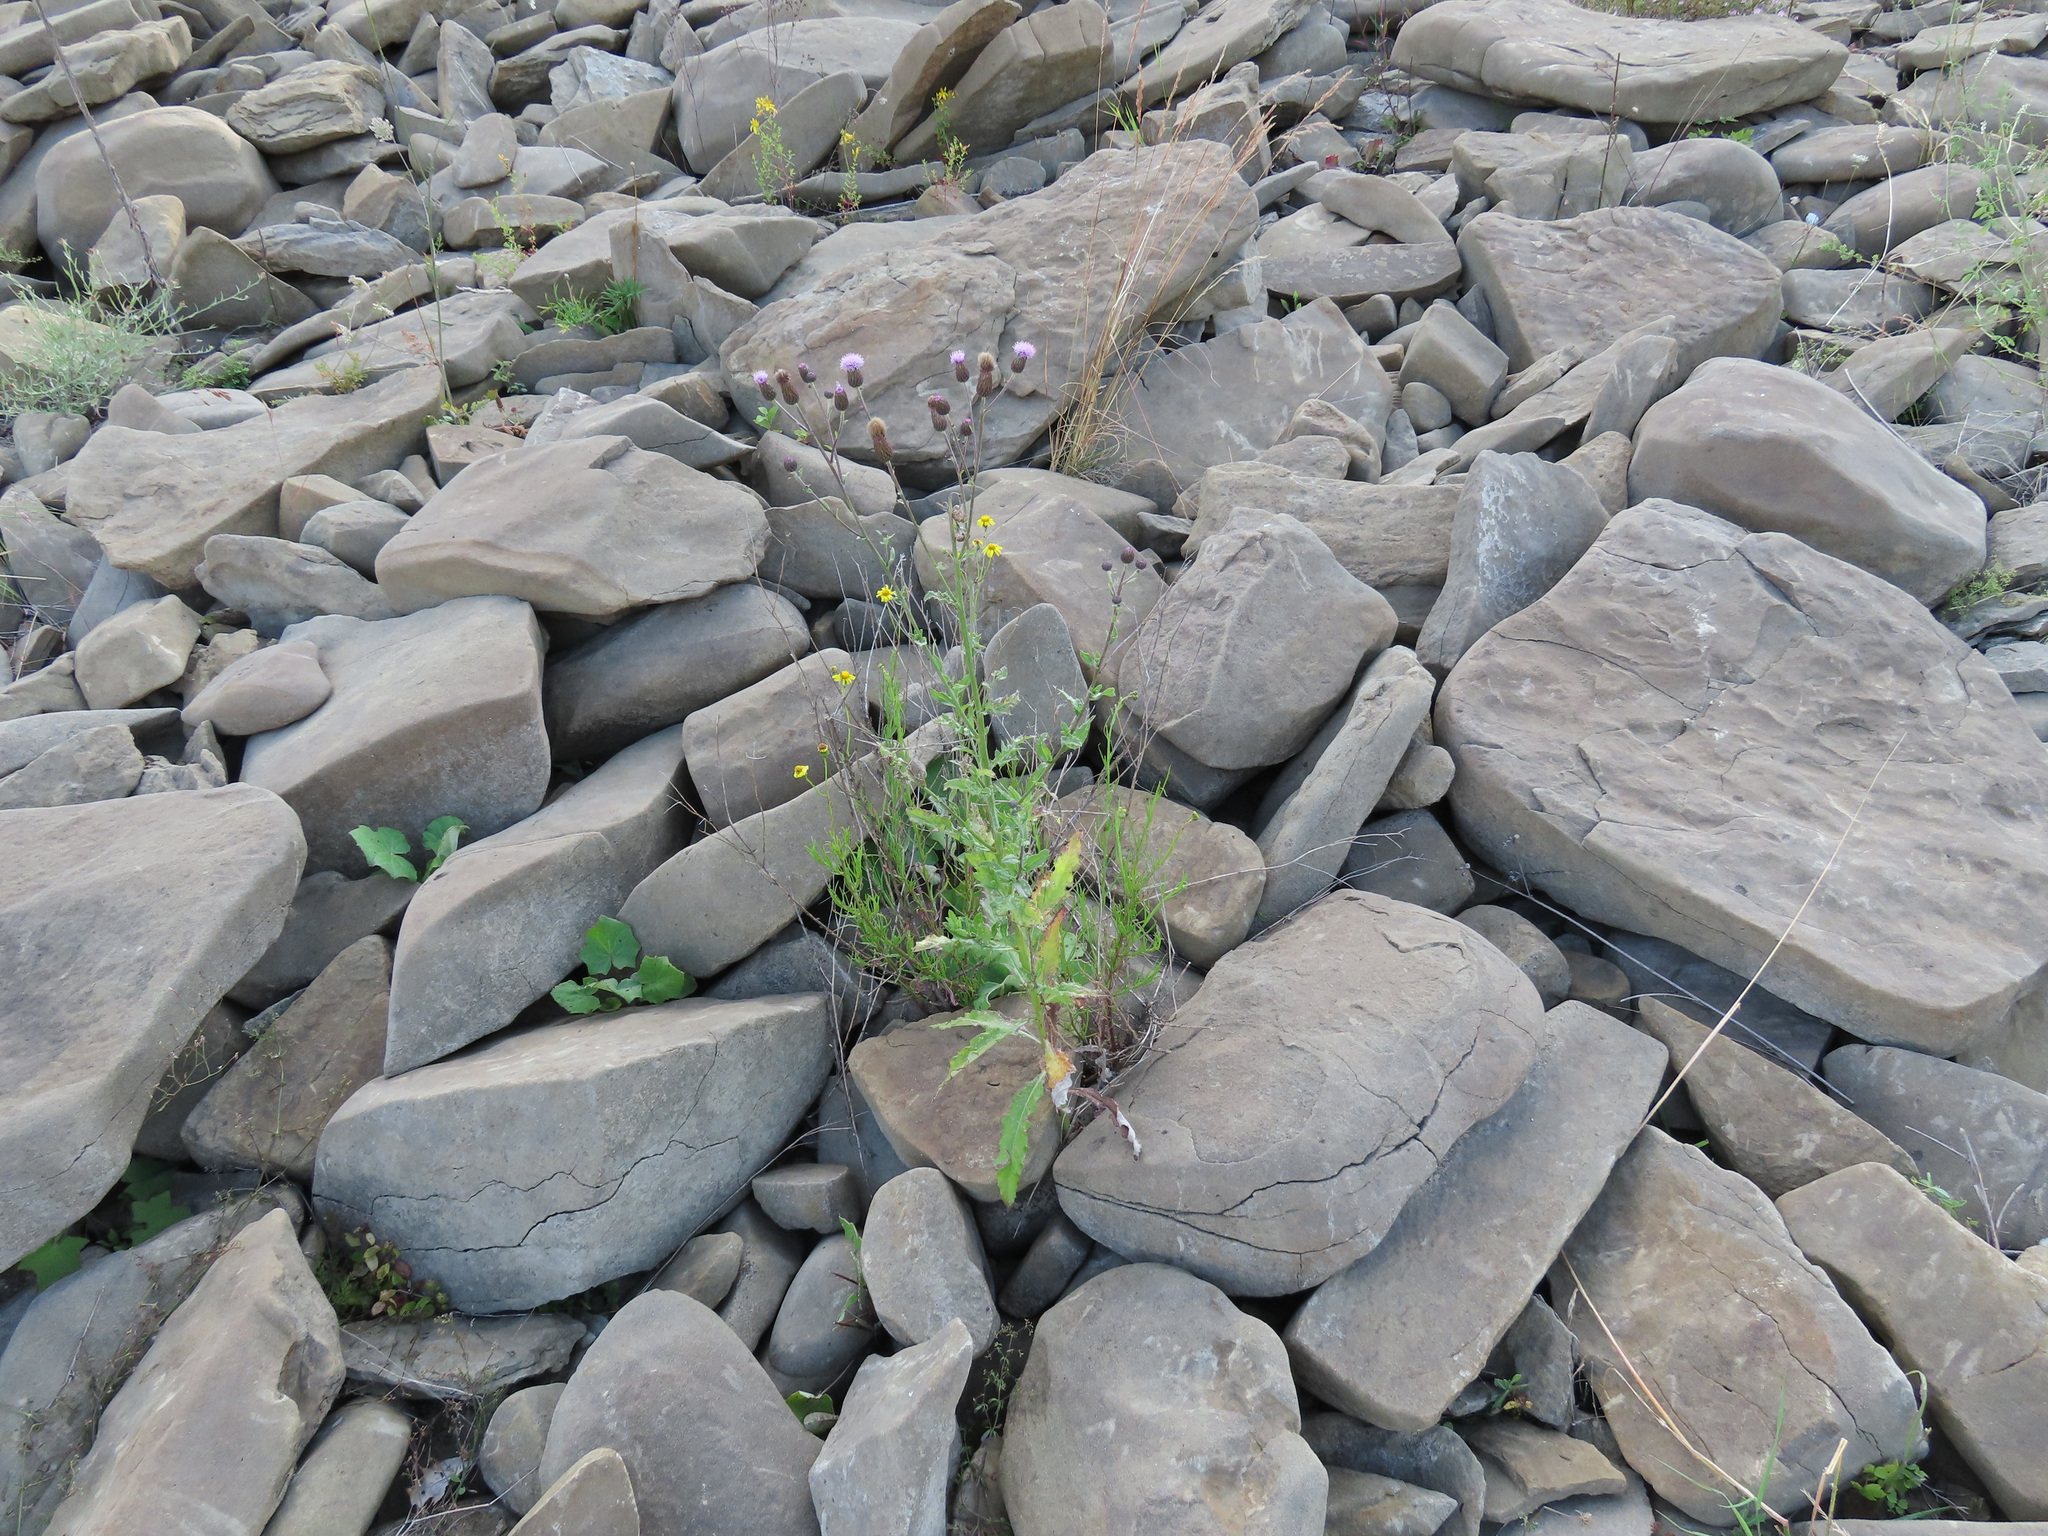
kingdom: Plantae
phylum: Tracheophyta
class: Magnoliopsida
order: Asterales
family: Asteraceae
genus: Cirsium
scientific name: Cirsium arvense
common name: Creeping thistle
